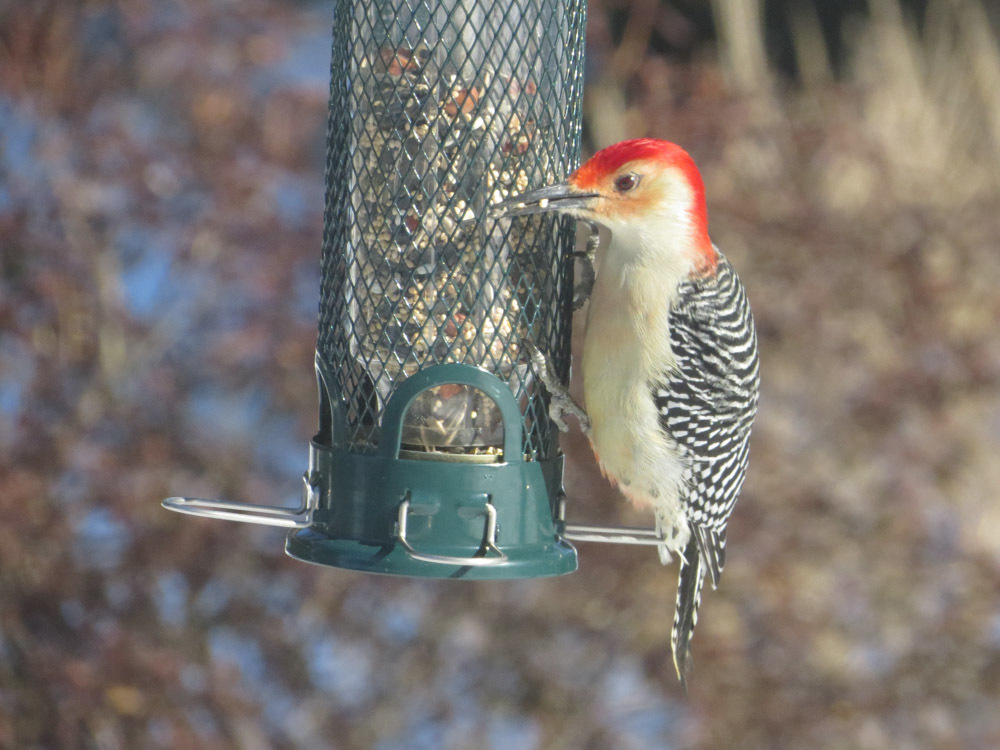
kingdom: Animalia
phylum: Chordata
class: Aves
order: Piciformes
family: Picidae
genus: Melanerpes
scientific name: Melanerpes carolinus
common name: Red-bellied woodpecker
